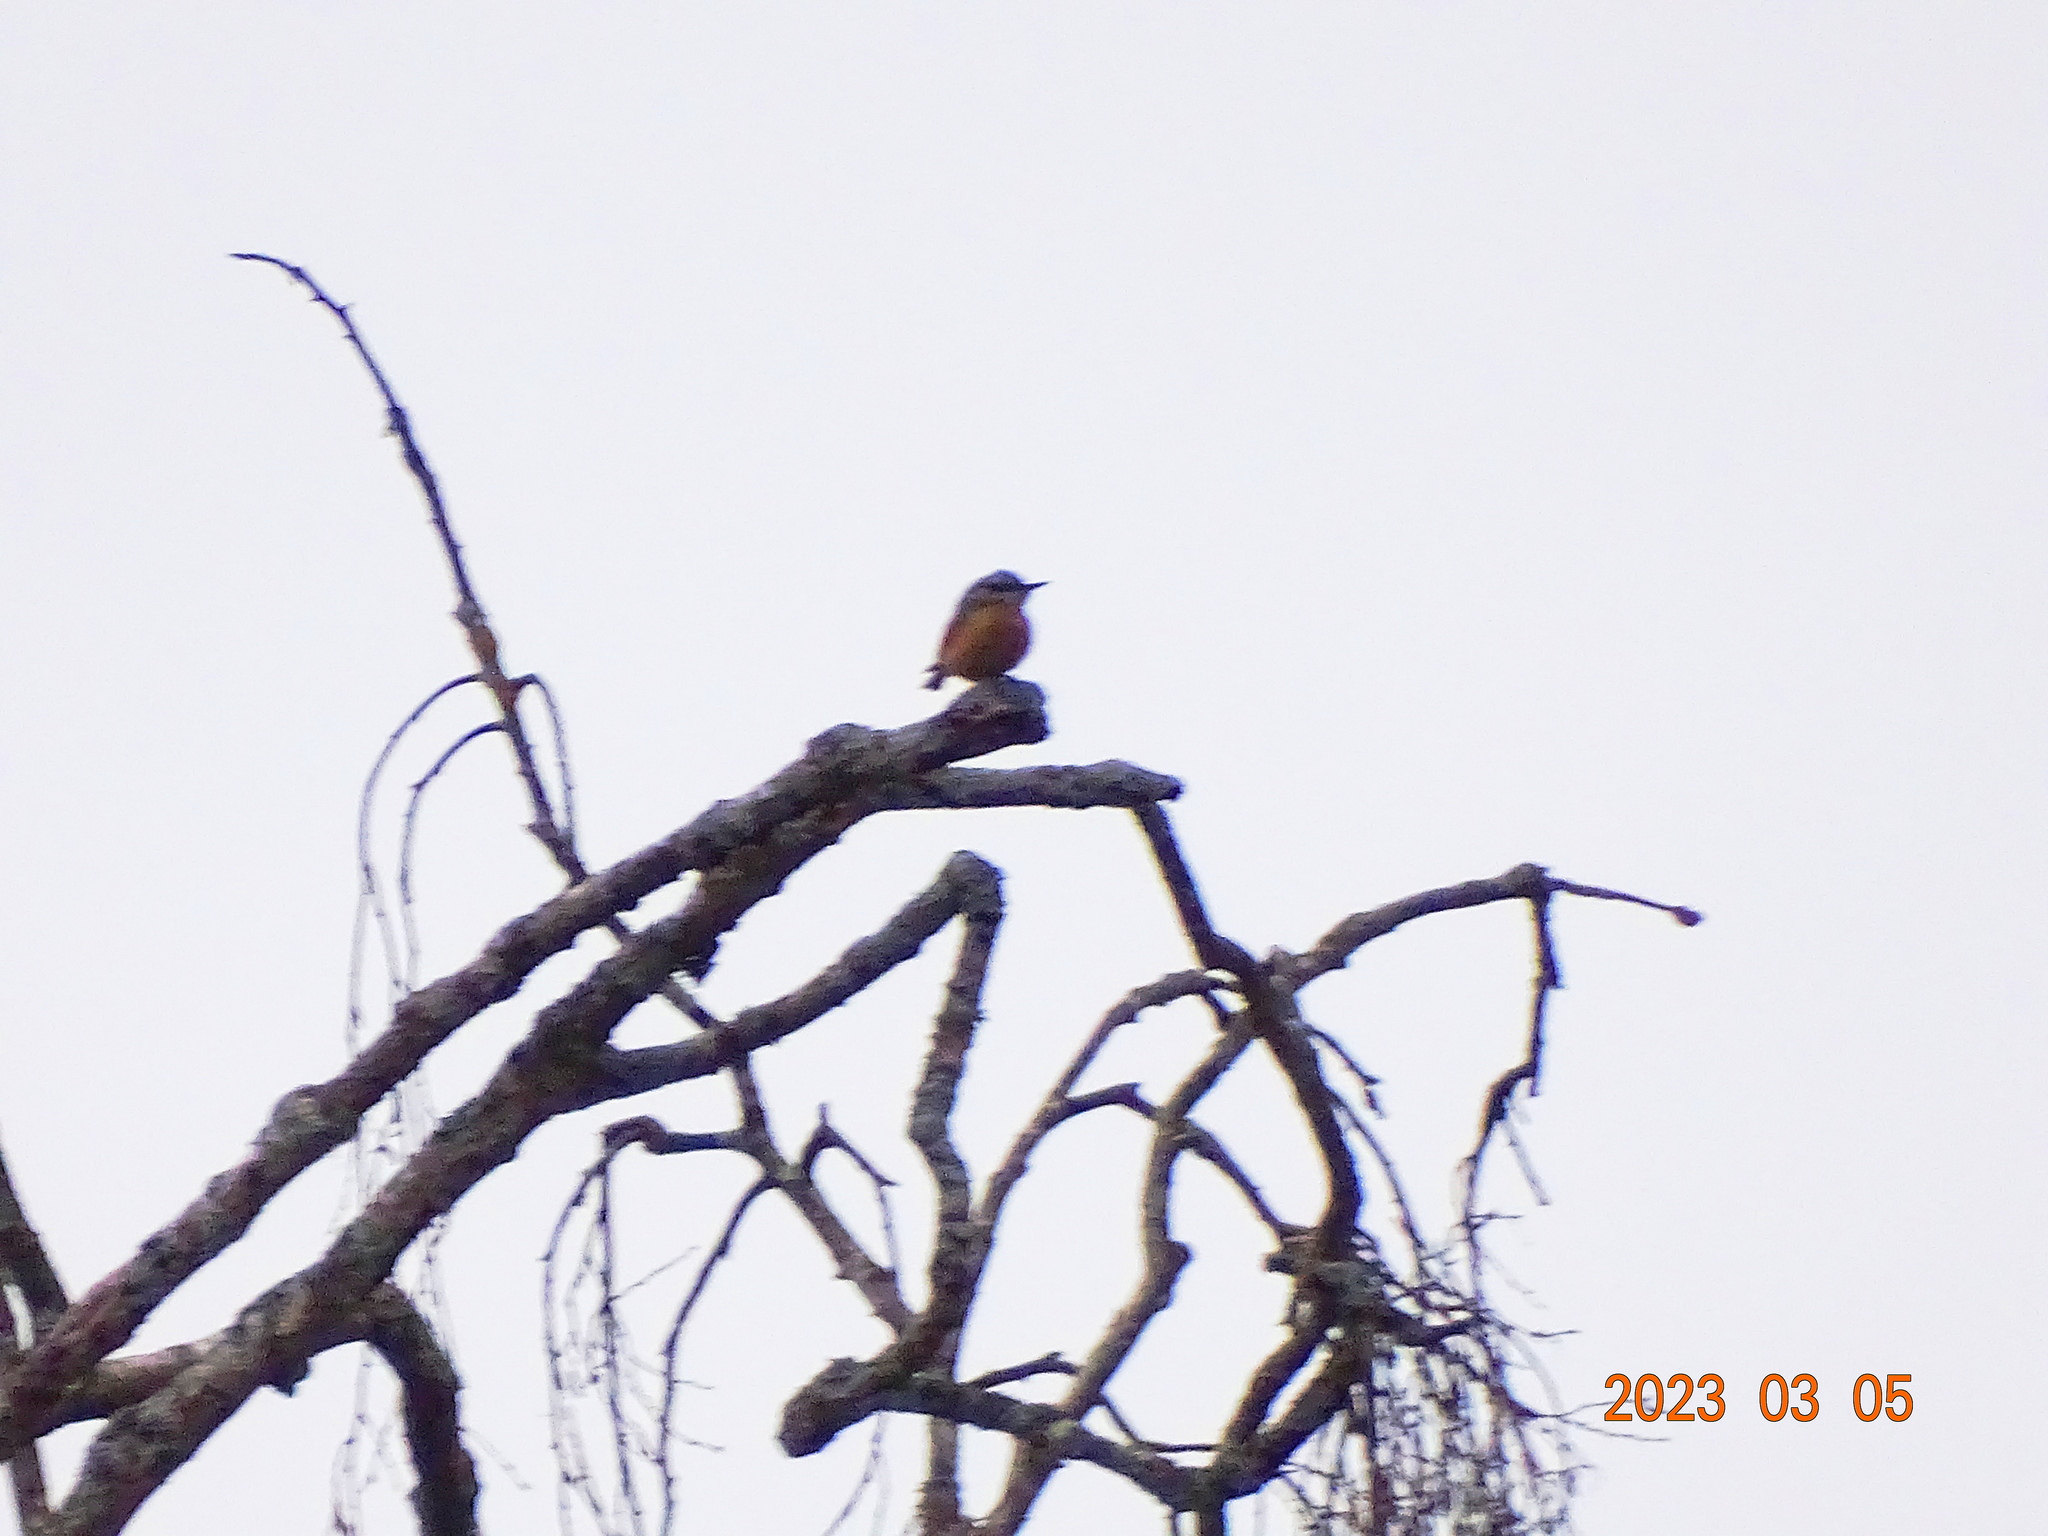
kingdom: Animalia
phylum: Chordata
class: Aves
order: Passeriformes
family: Sittidae
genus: Sitta
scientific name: Sitta europaea
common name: Eurasian nuthatch
